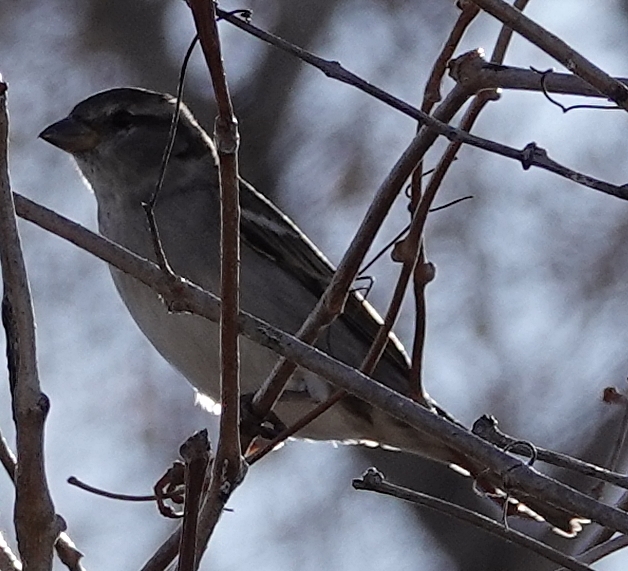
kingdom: Animalia
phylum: Chordata
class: Aves
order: Passeriformes
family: Passeridae
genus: Passer
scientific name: Passer domesticus
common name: House sparrow
